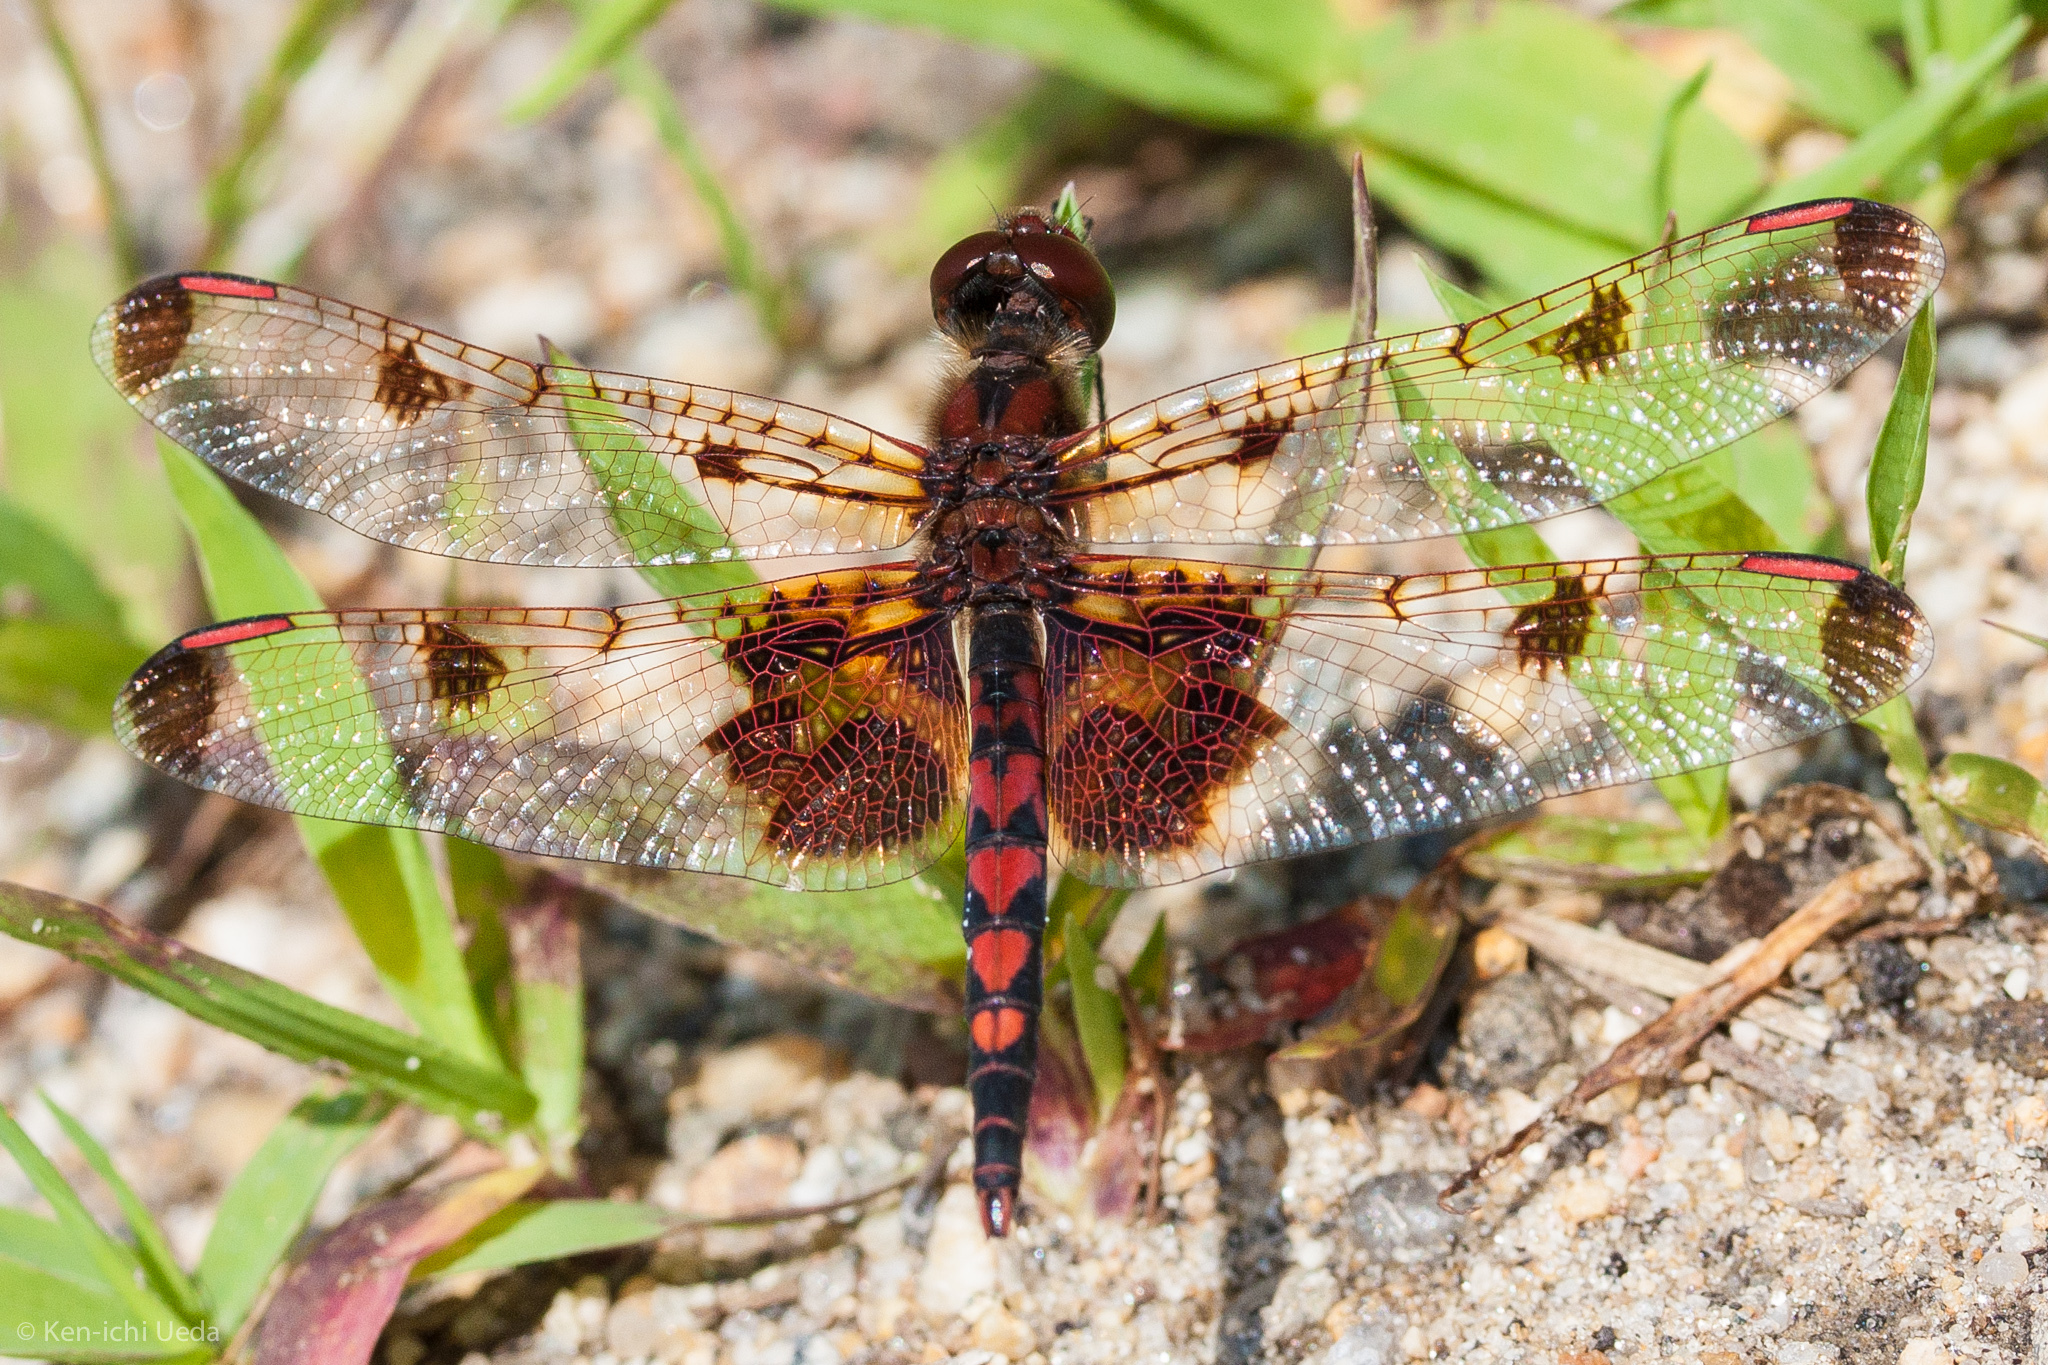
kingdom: Animalia
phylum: Arthropoda
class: Insecta
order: Odonata
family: Libellulidae
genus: Celithemis
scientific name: Celithemis elisa
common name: Calico pennant
